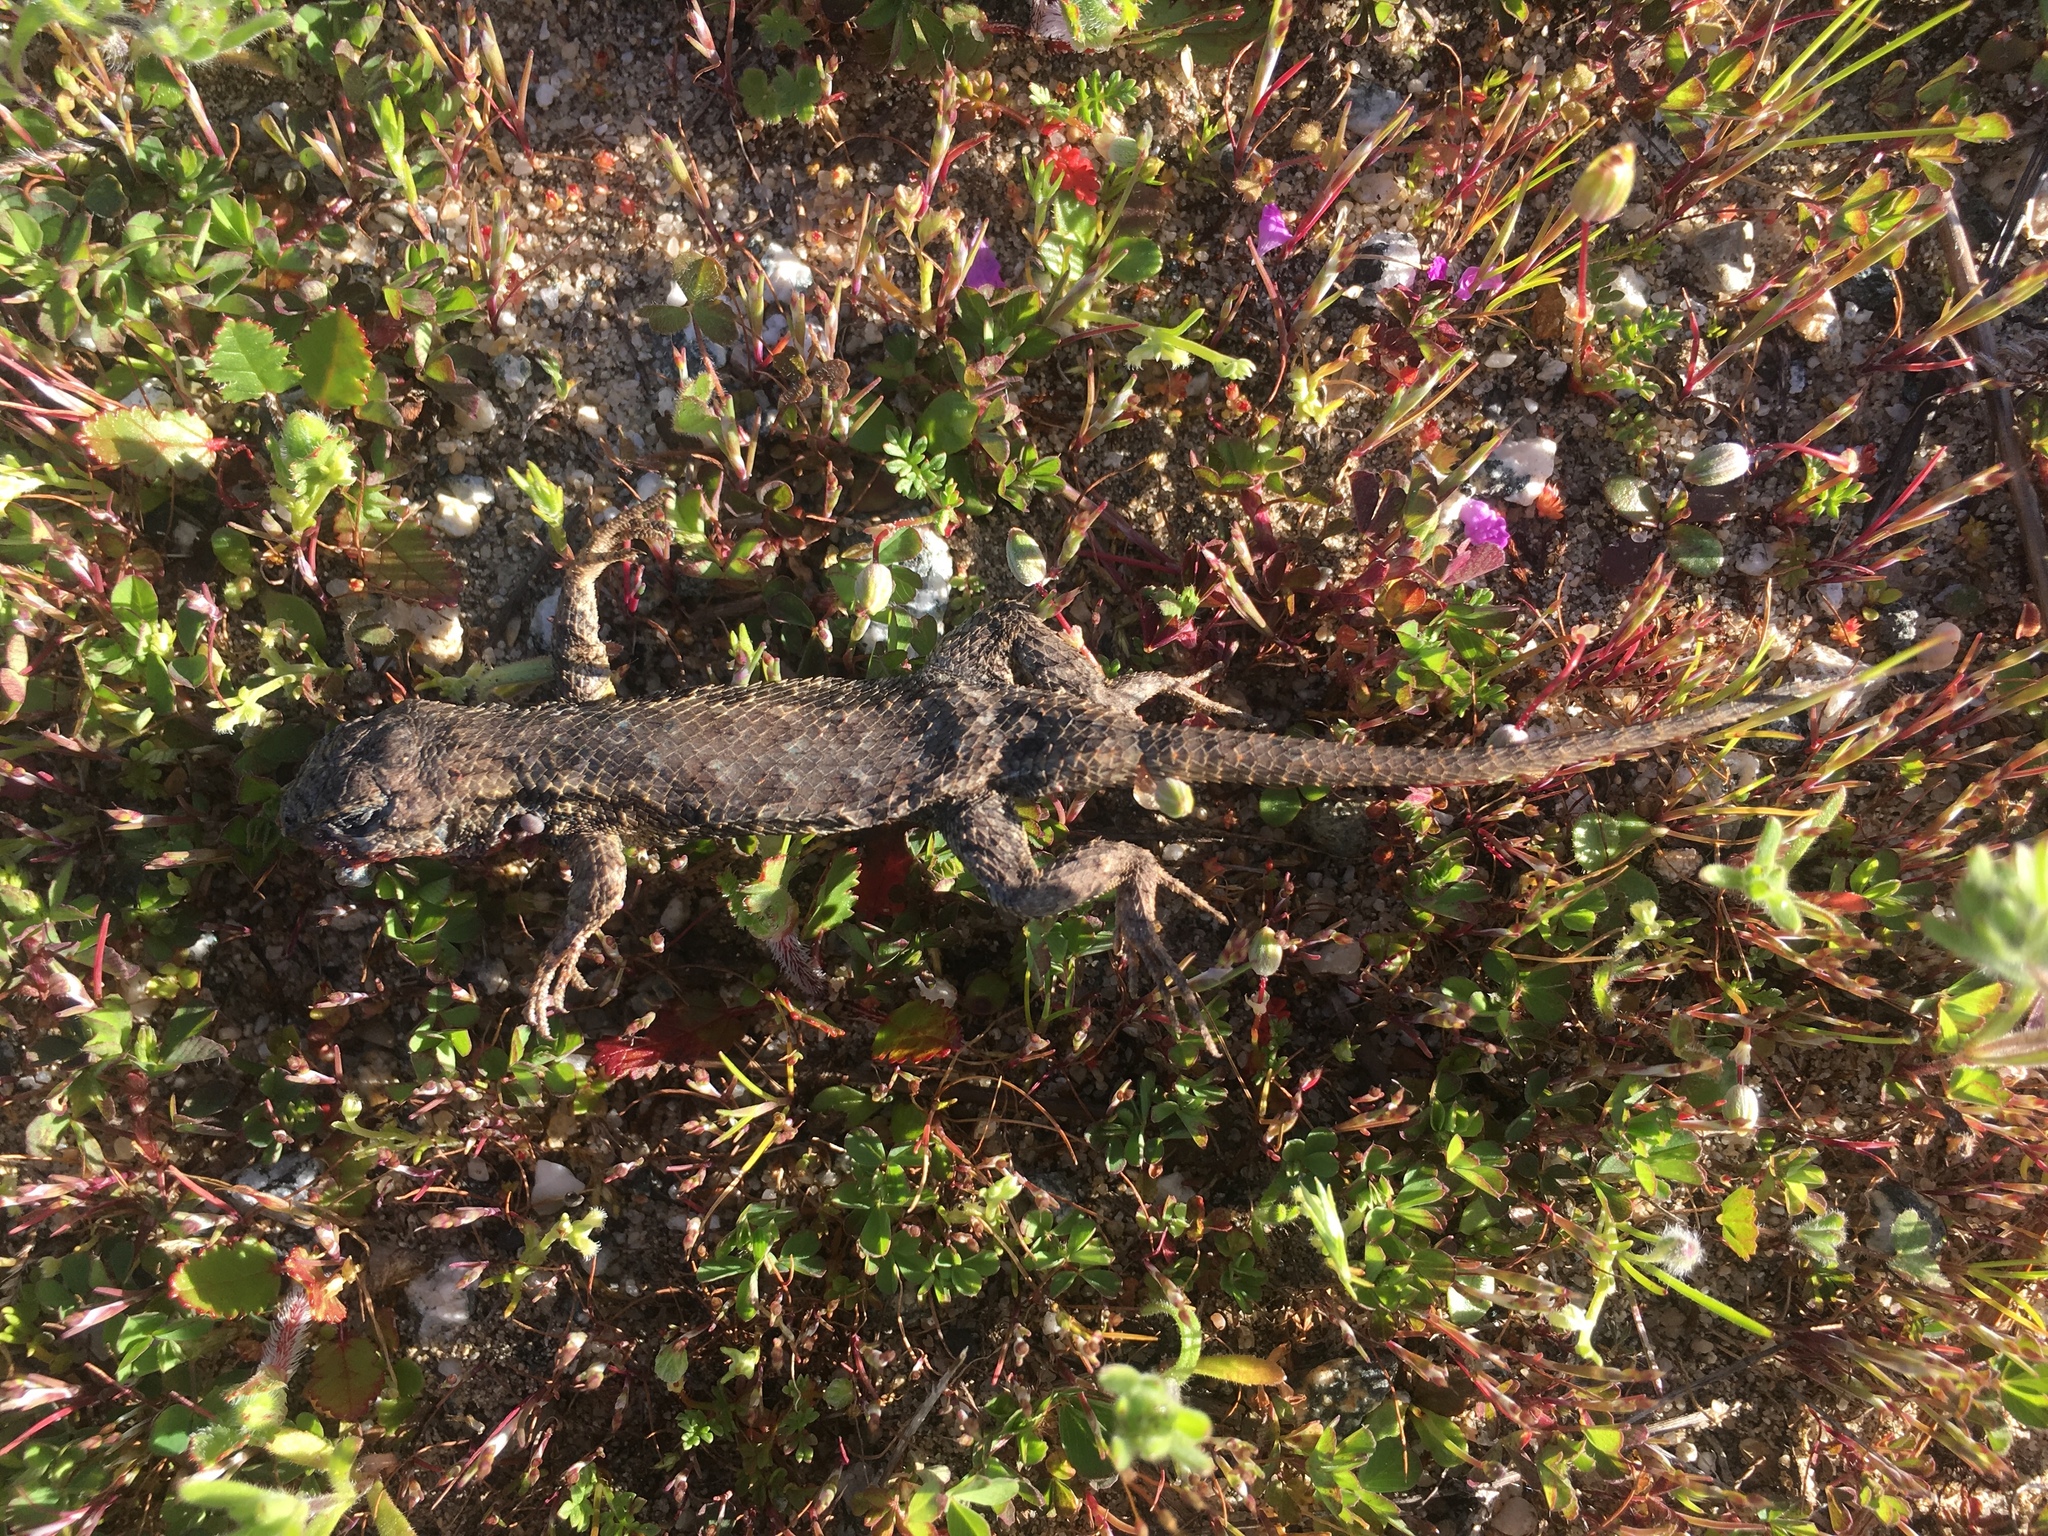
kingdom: Animalia
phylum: Chordata
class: Squamata
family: Phrynosomatidae
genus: Sceloporus
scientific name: Sceloporus occidentalis
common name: Western fence lizard
